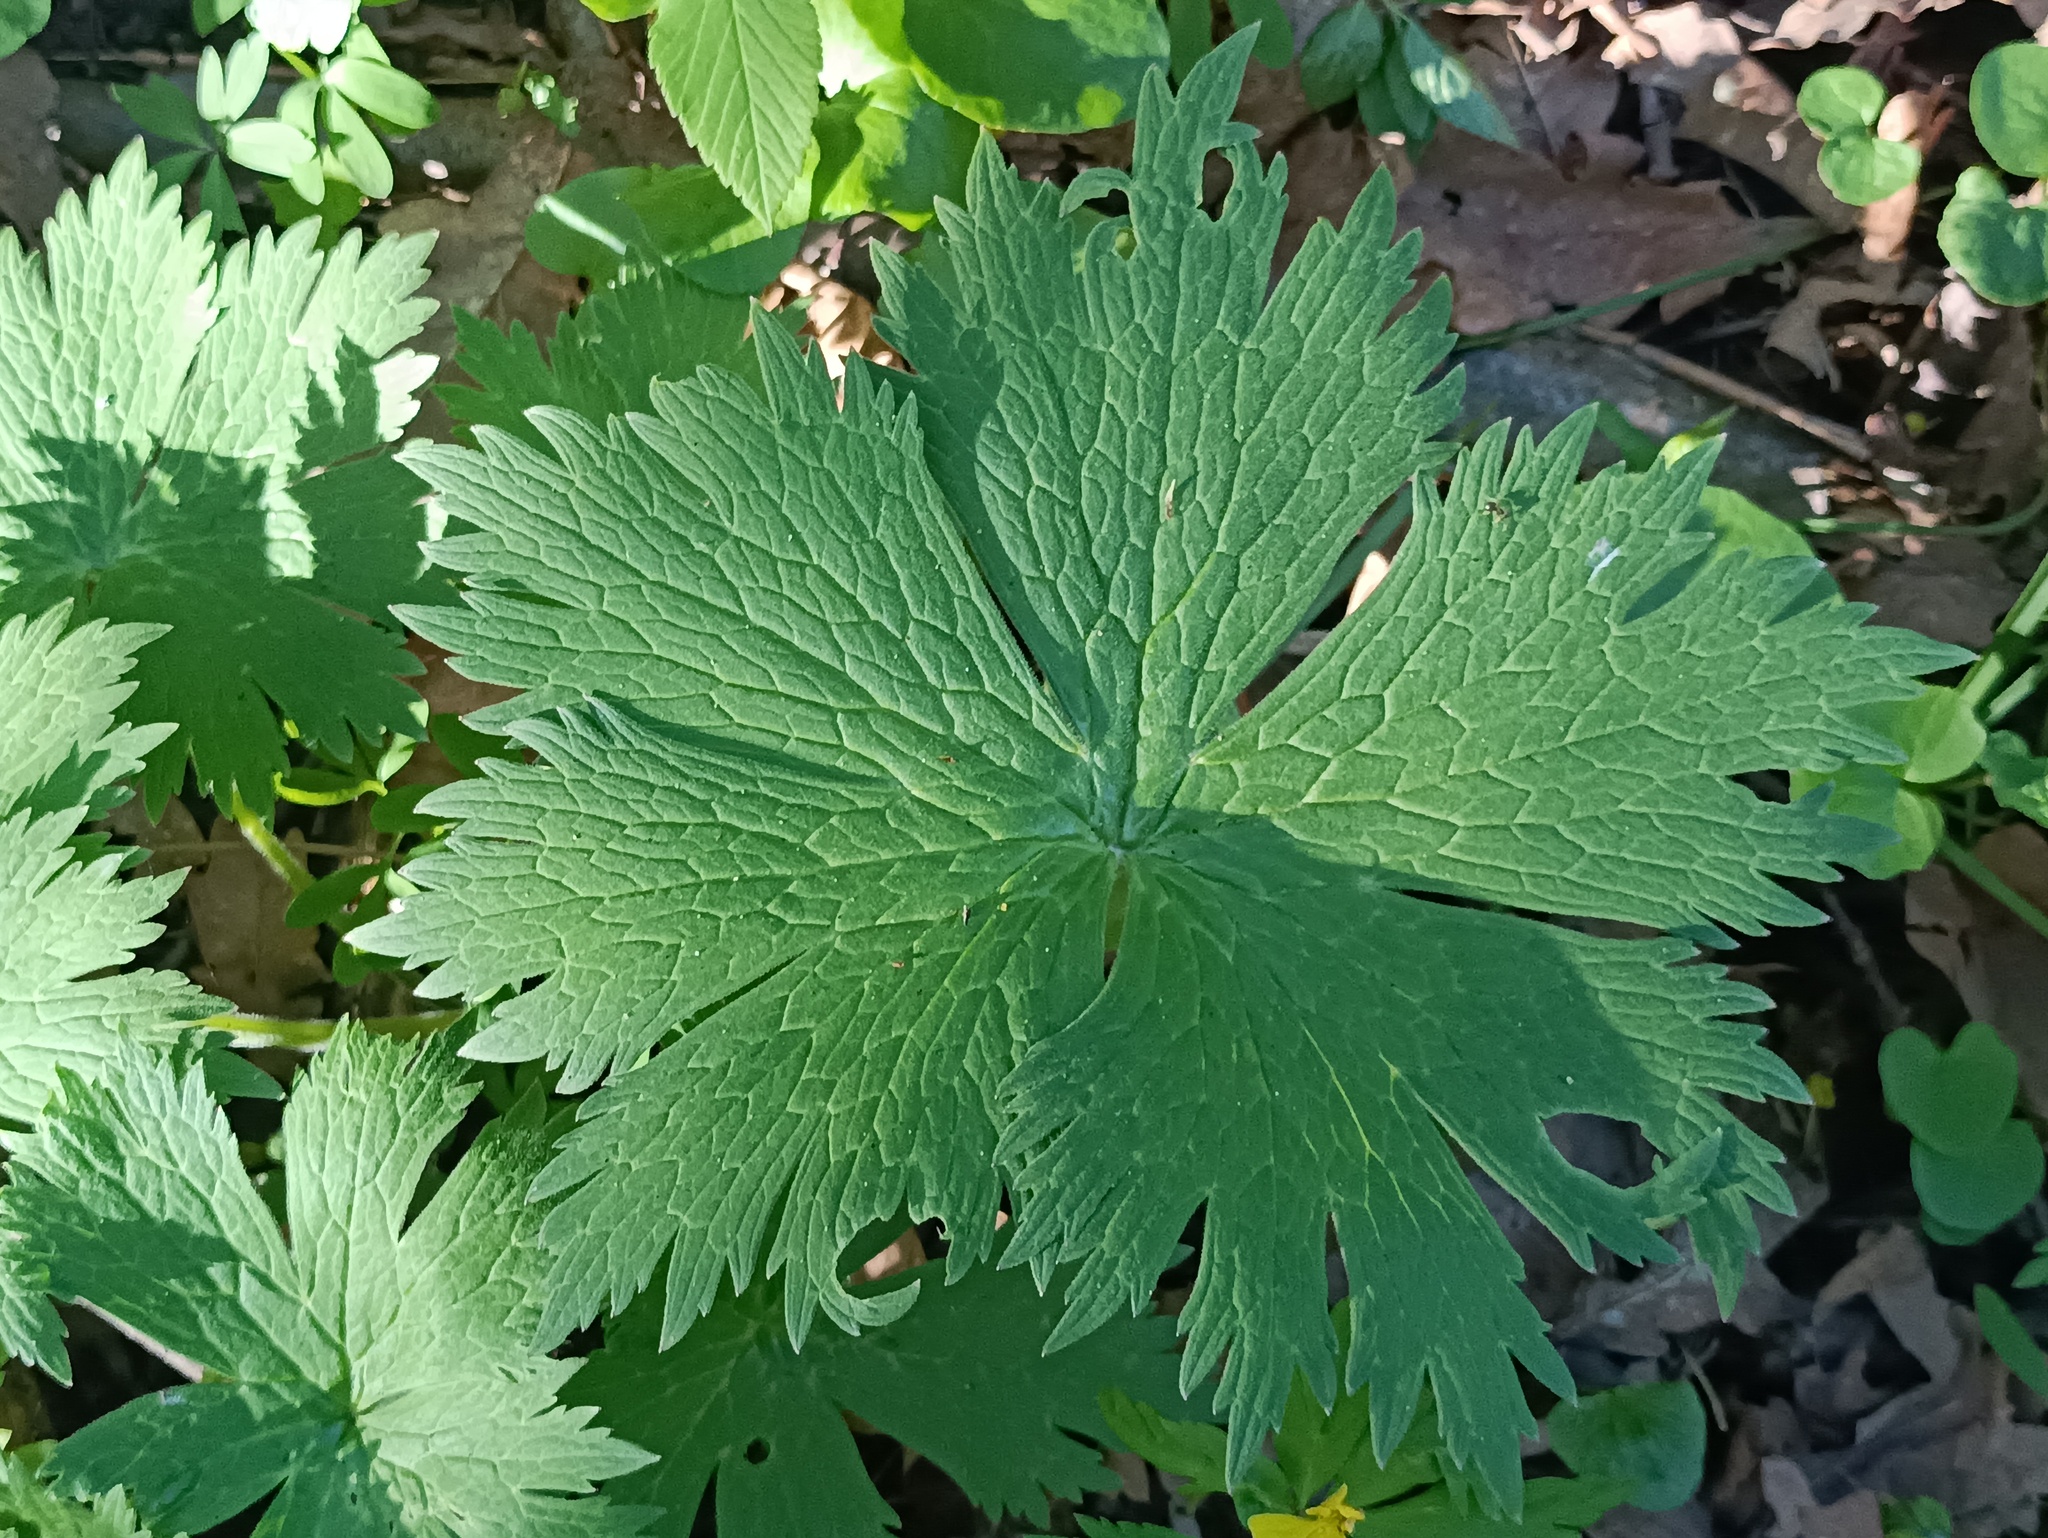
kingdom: Plantae
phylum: Tracheophyta
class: Magnoliopsida
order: Ranunculales
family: Ranunculaceae
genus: Aconitum
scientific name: Aconitum septentrionale
